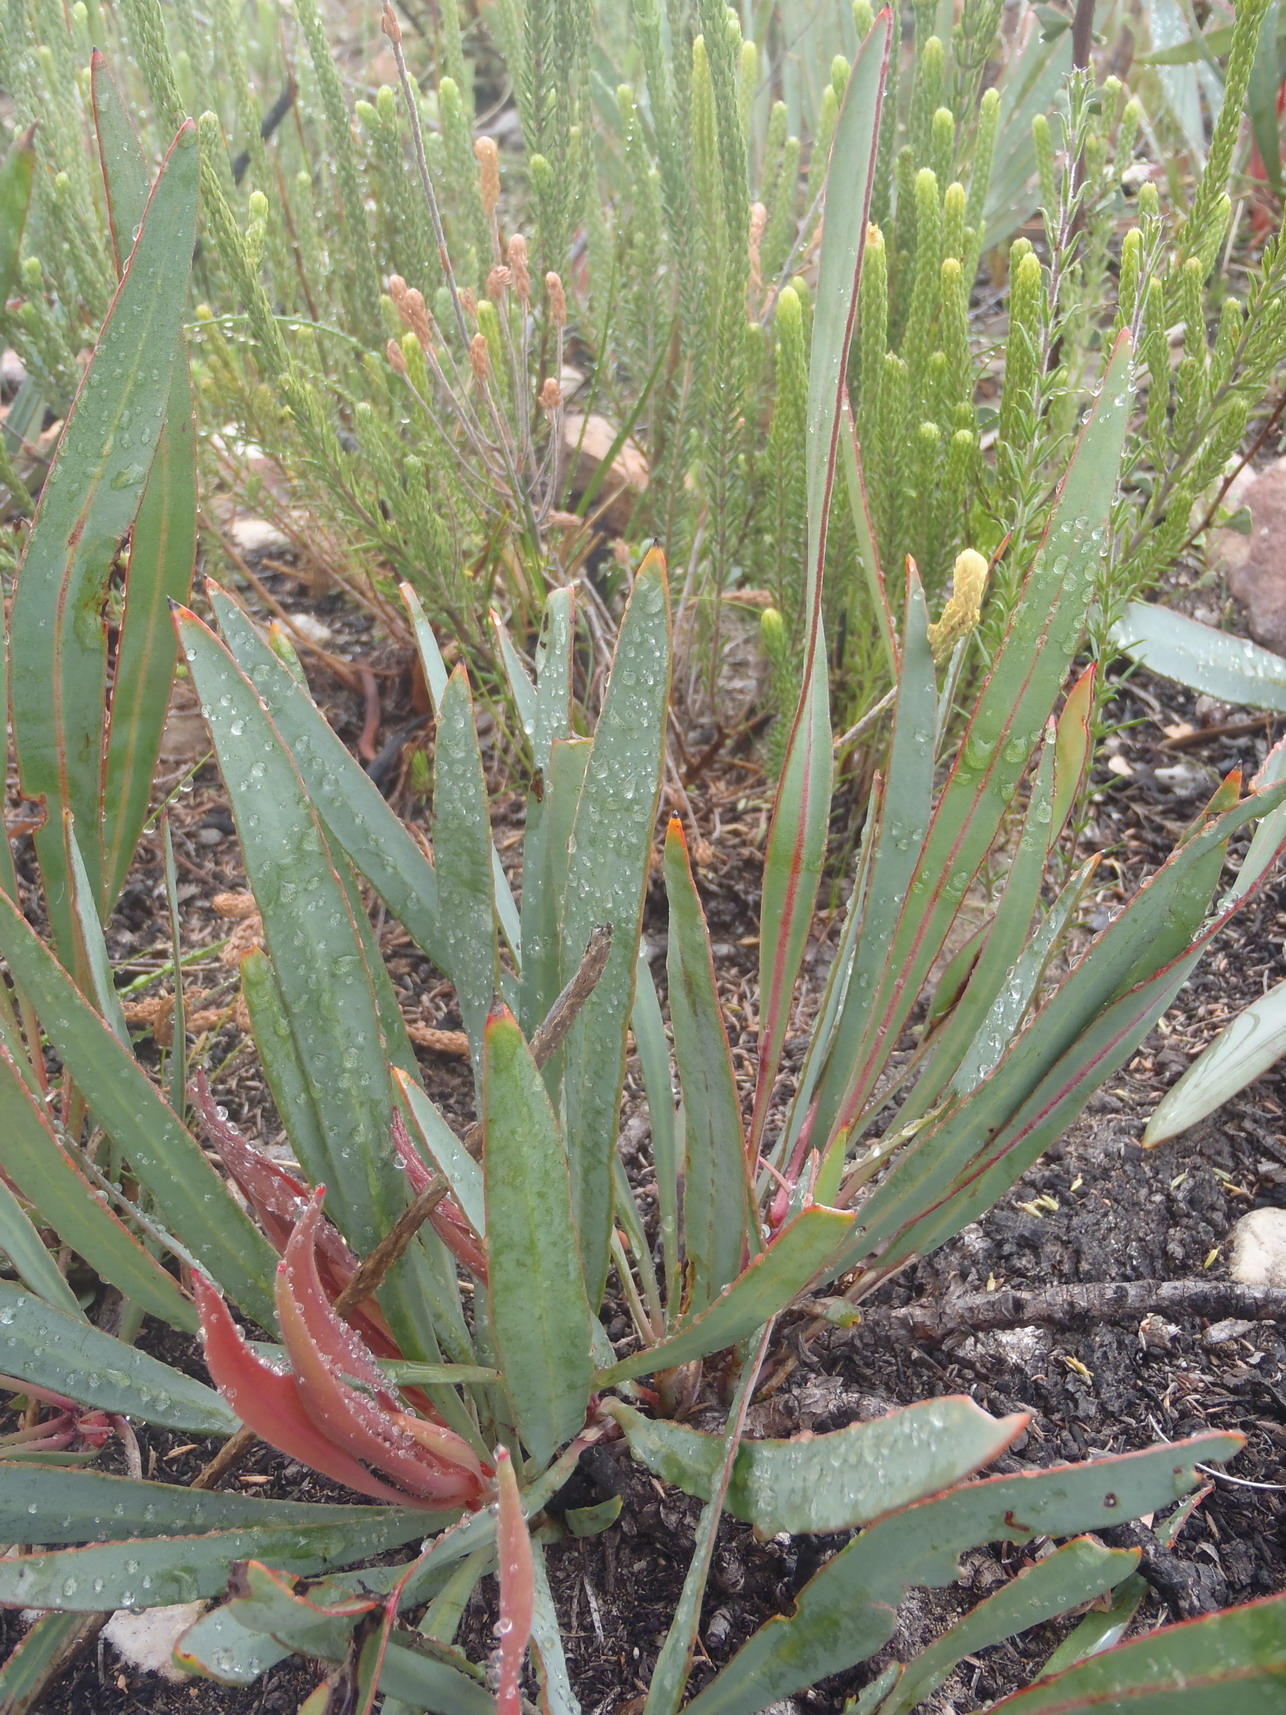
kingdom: Plantae
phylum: Tracheophyta
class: Magnoliopsida
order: Proteales
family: Proteaceae
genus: Protea
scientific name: Protea vogtsiae
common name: Kouga sugarbush
